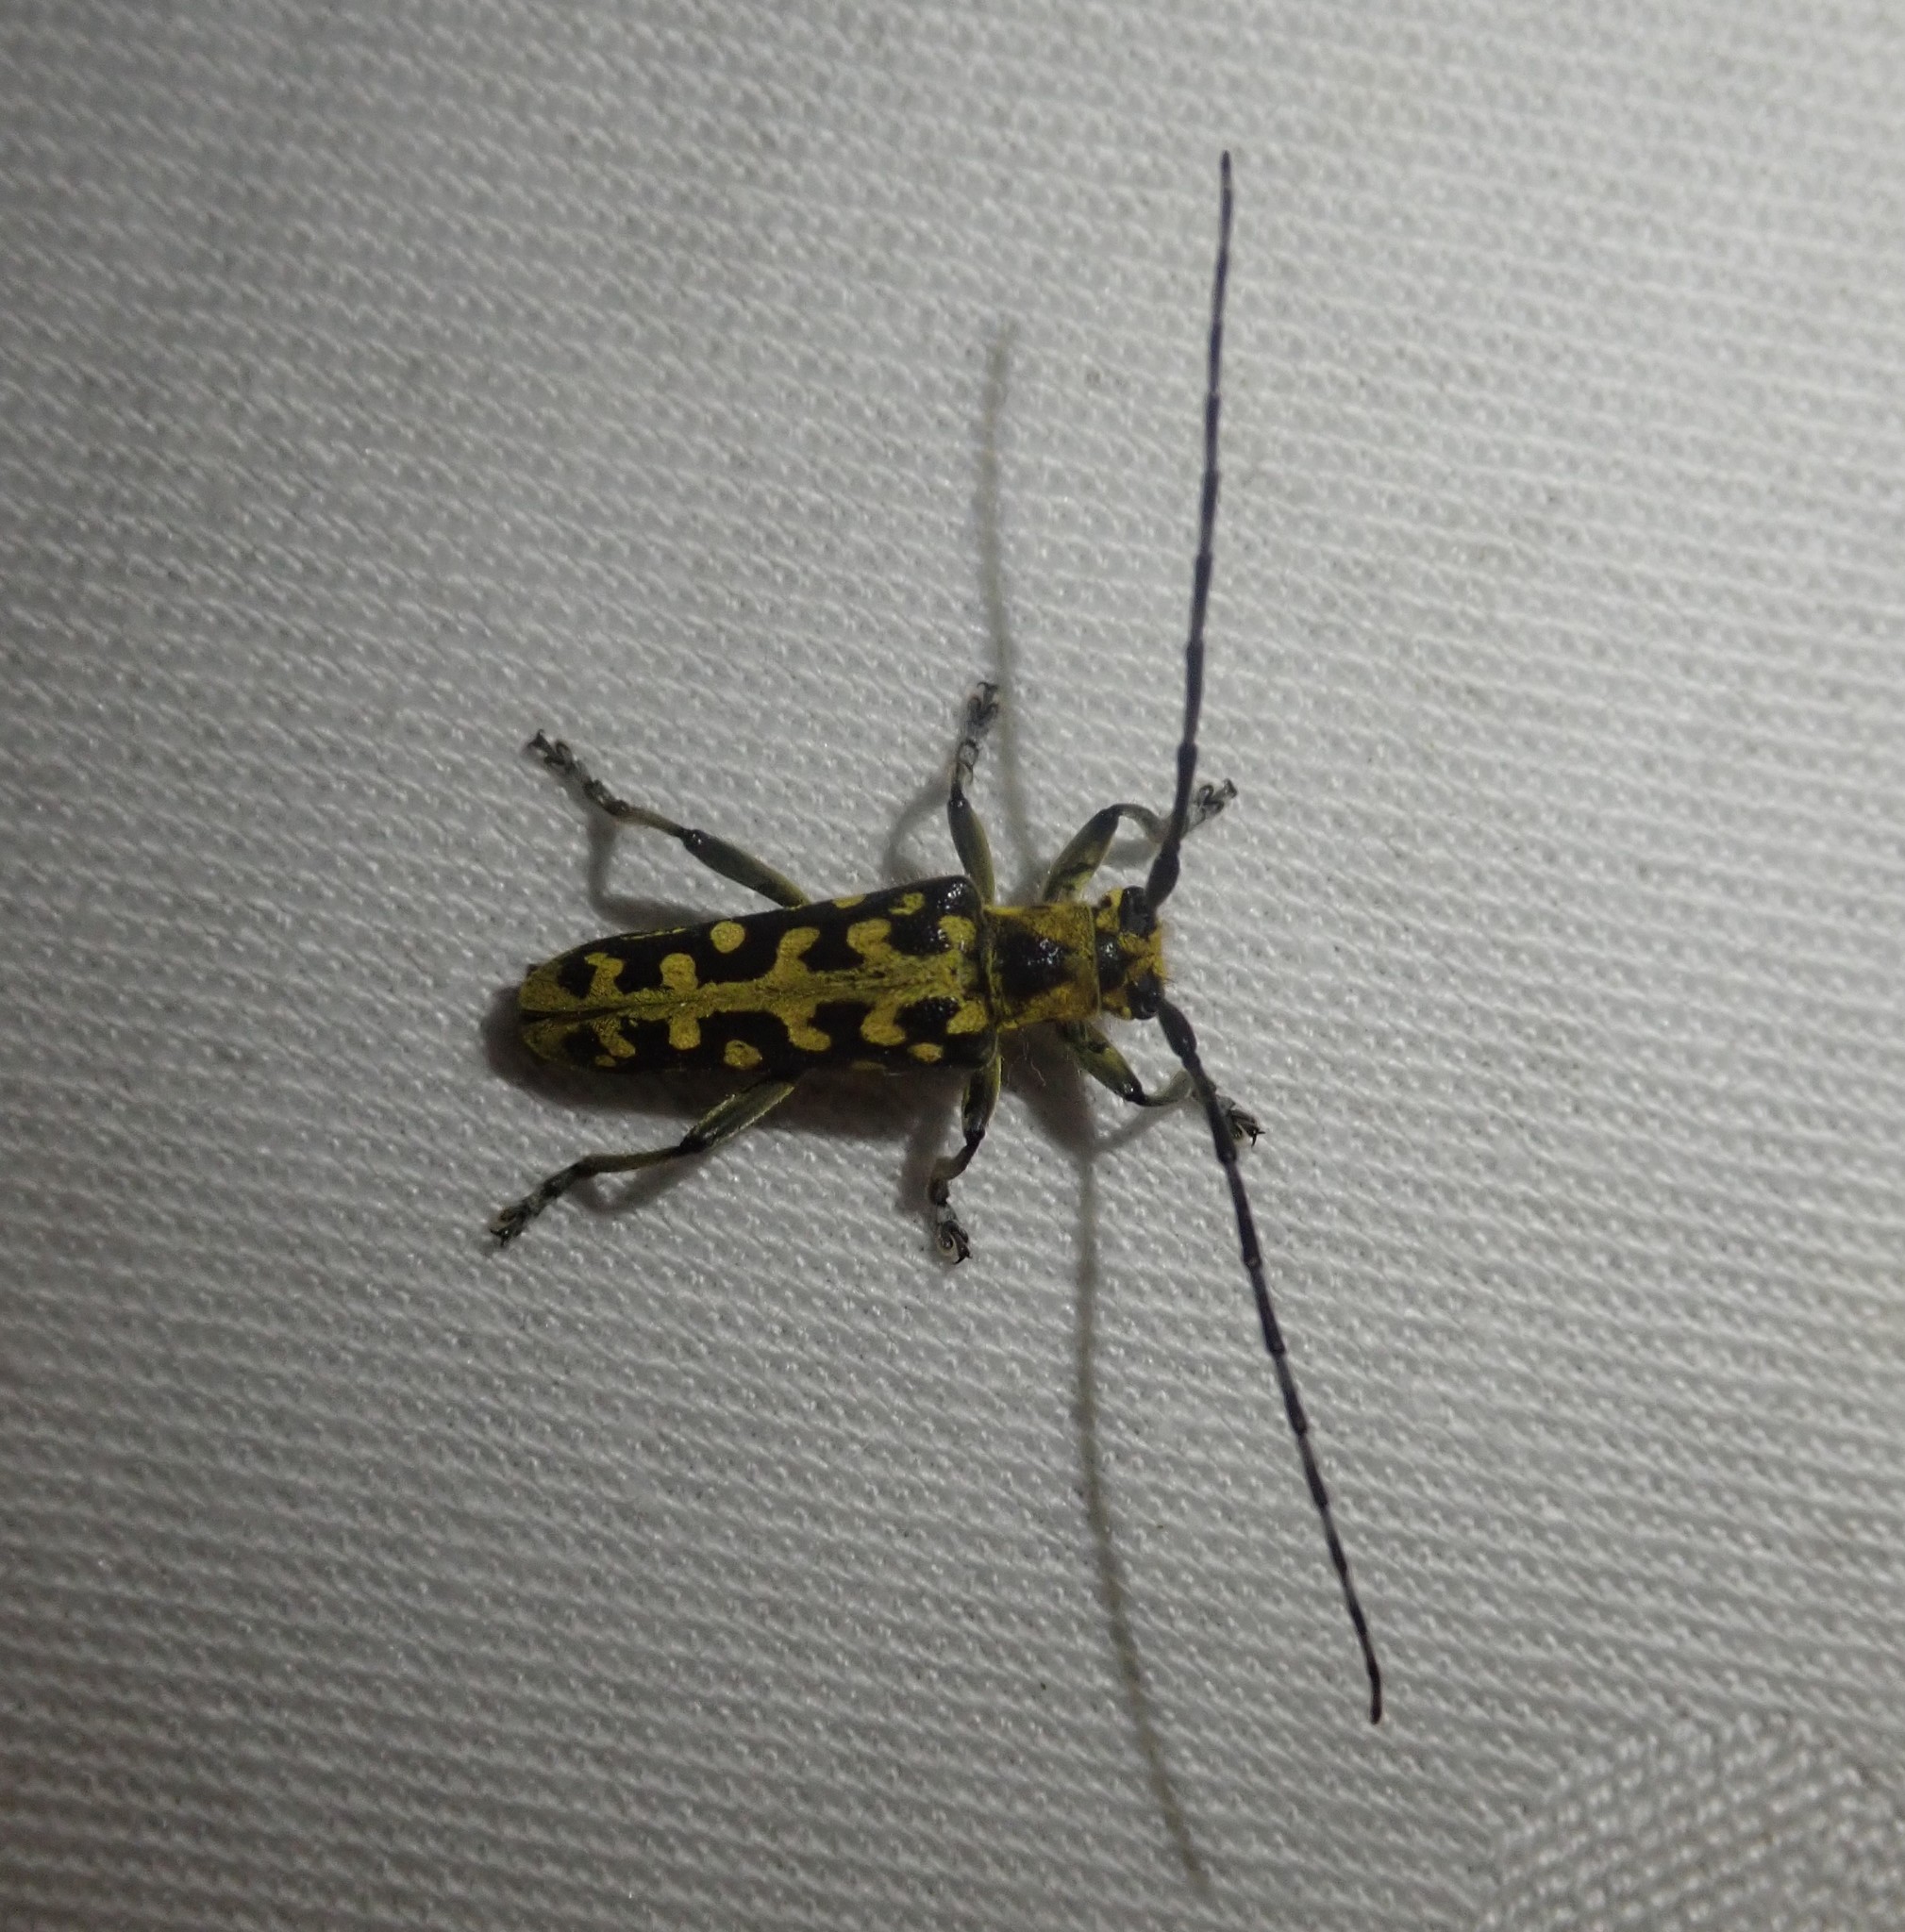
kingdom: Animalia
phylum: Arthropoda
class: Insecta
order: Coleoptera
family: Cerambycidae
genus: Saperda
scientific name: Saperda scalaris
